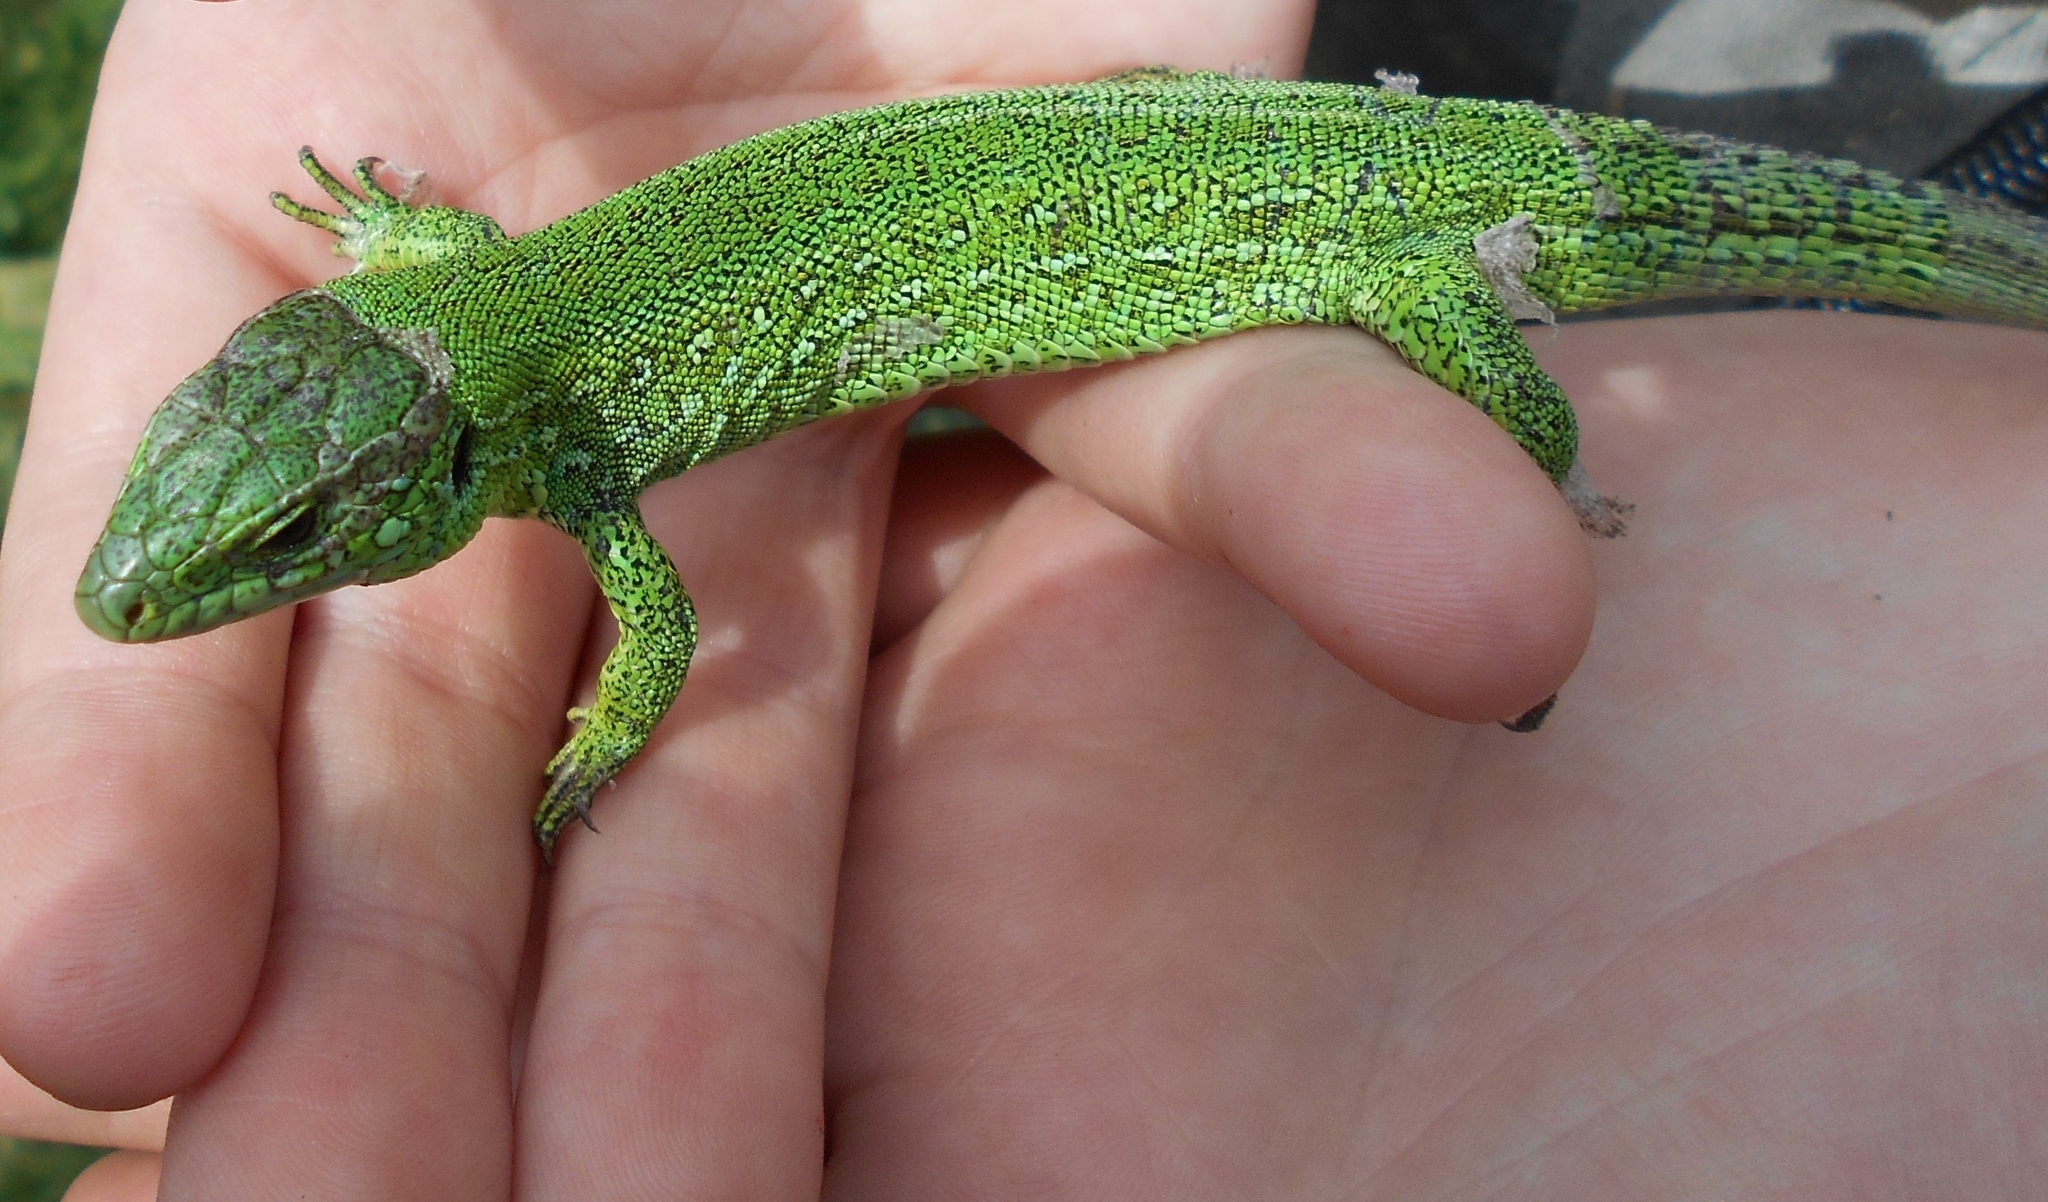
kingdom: Animalia
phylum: Chordata
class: Squamata
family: Lacertidae
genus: Lacerta
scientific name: Lacerta agilis
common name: Sand lizard
